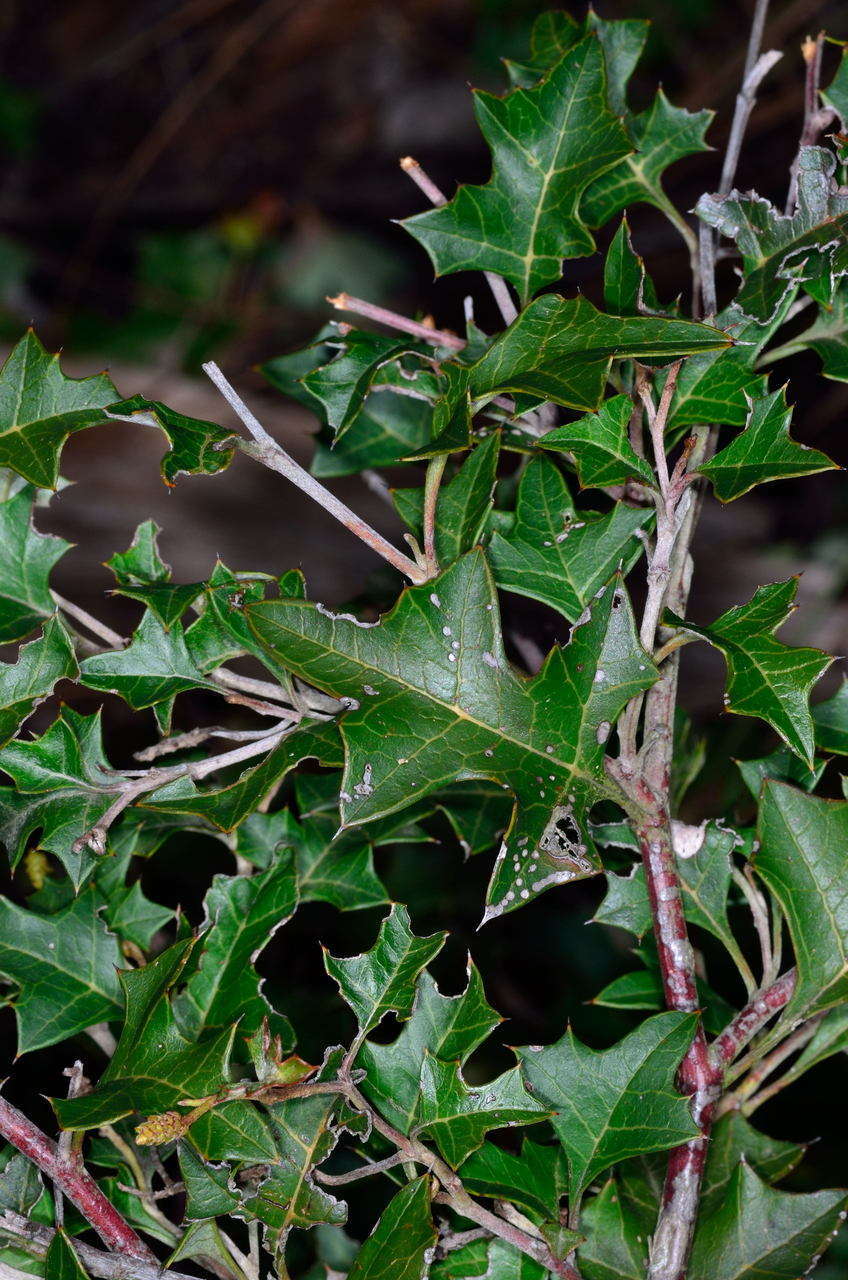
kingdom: Plantae
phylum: Tracheophyta
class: Magnoliopsida
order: Proteales
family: Proteaceae
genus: Grevillea
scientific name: Grevillea steiglitziana
